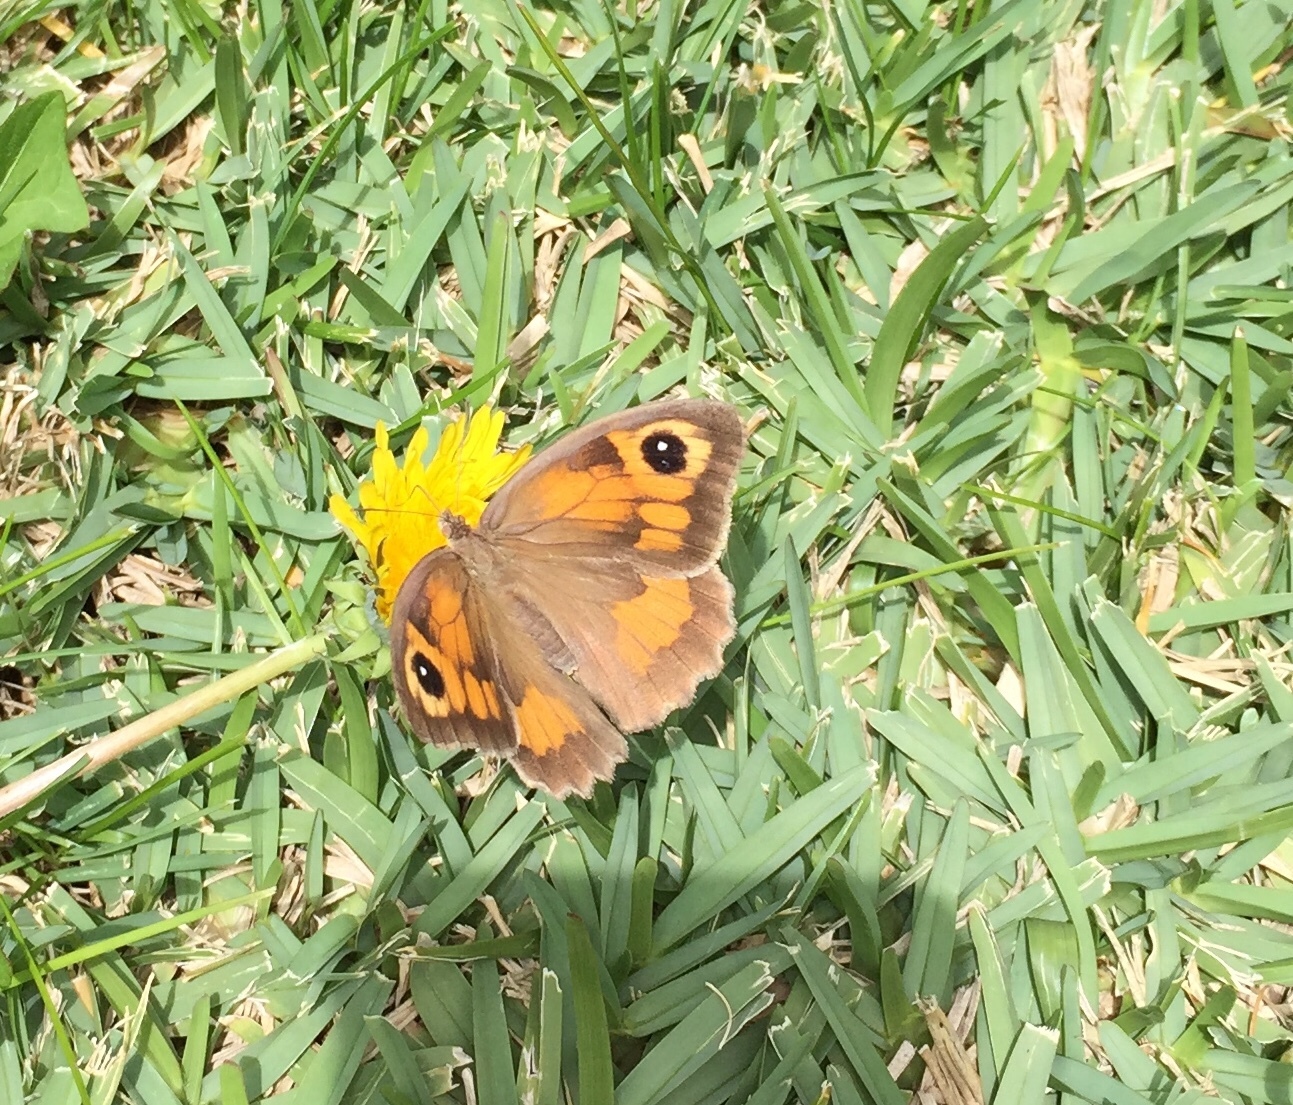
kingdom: Animalia
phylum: Arthropoda
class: Insecta
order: Lepidoptera
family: Nymphalidae
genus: Maniola
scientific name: Maniola jurtina
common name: Meadow brown
